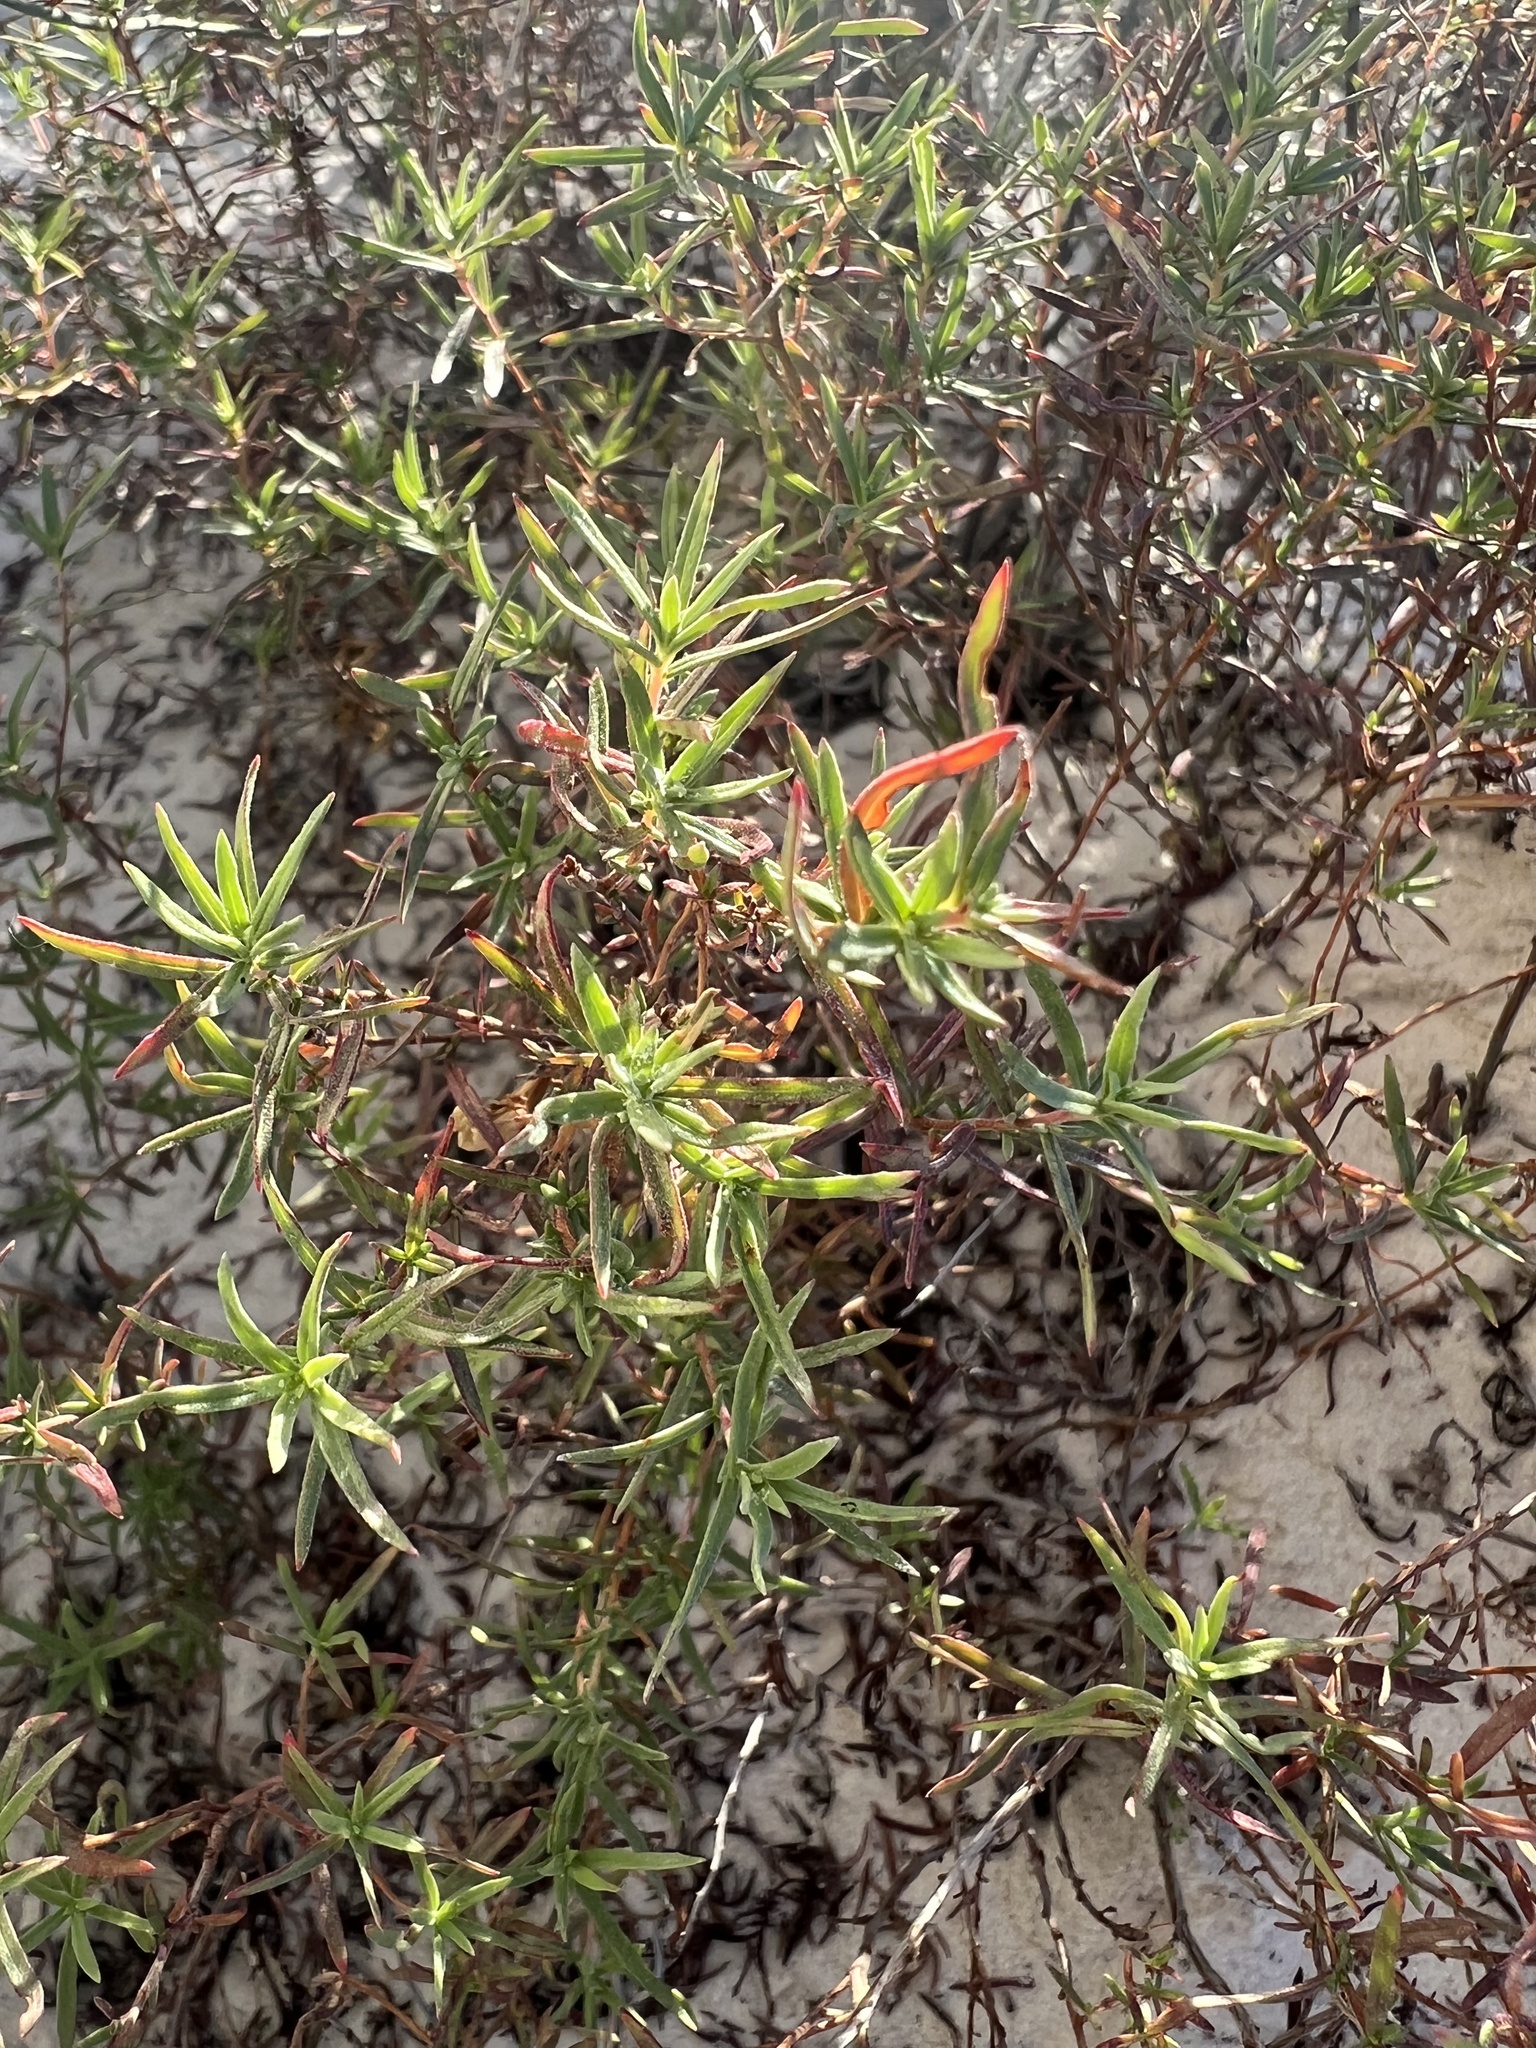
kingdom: Plantae
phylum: Tracheophyta
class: Magnoliopsida
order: Myrtales
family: Onagraceae
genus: Oenothera
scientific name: Oenothera hartwegii
